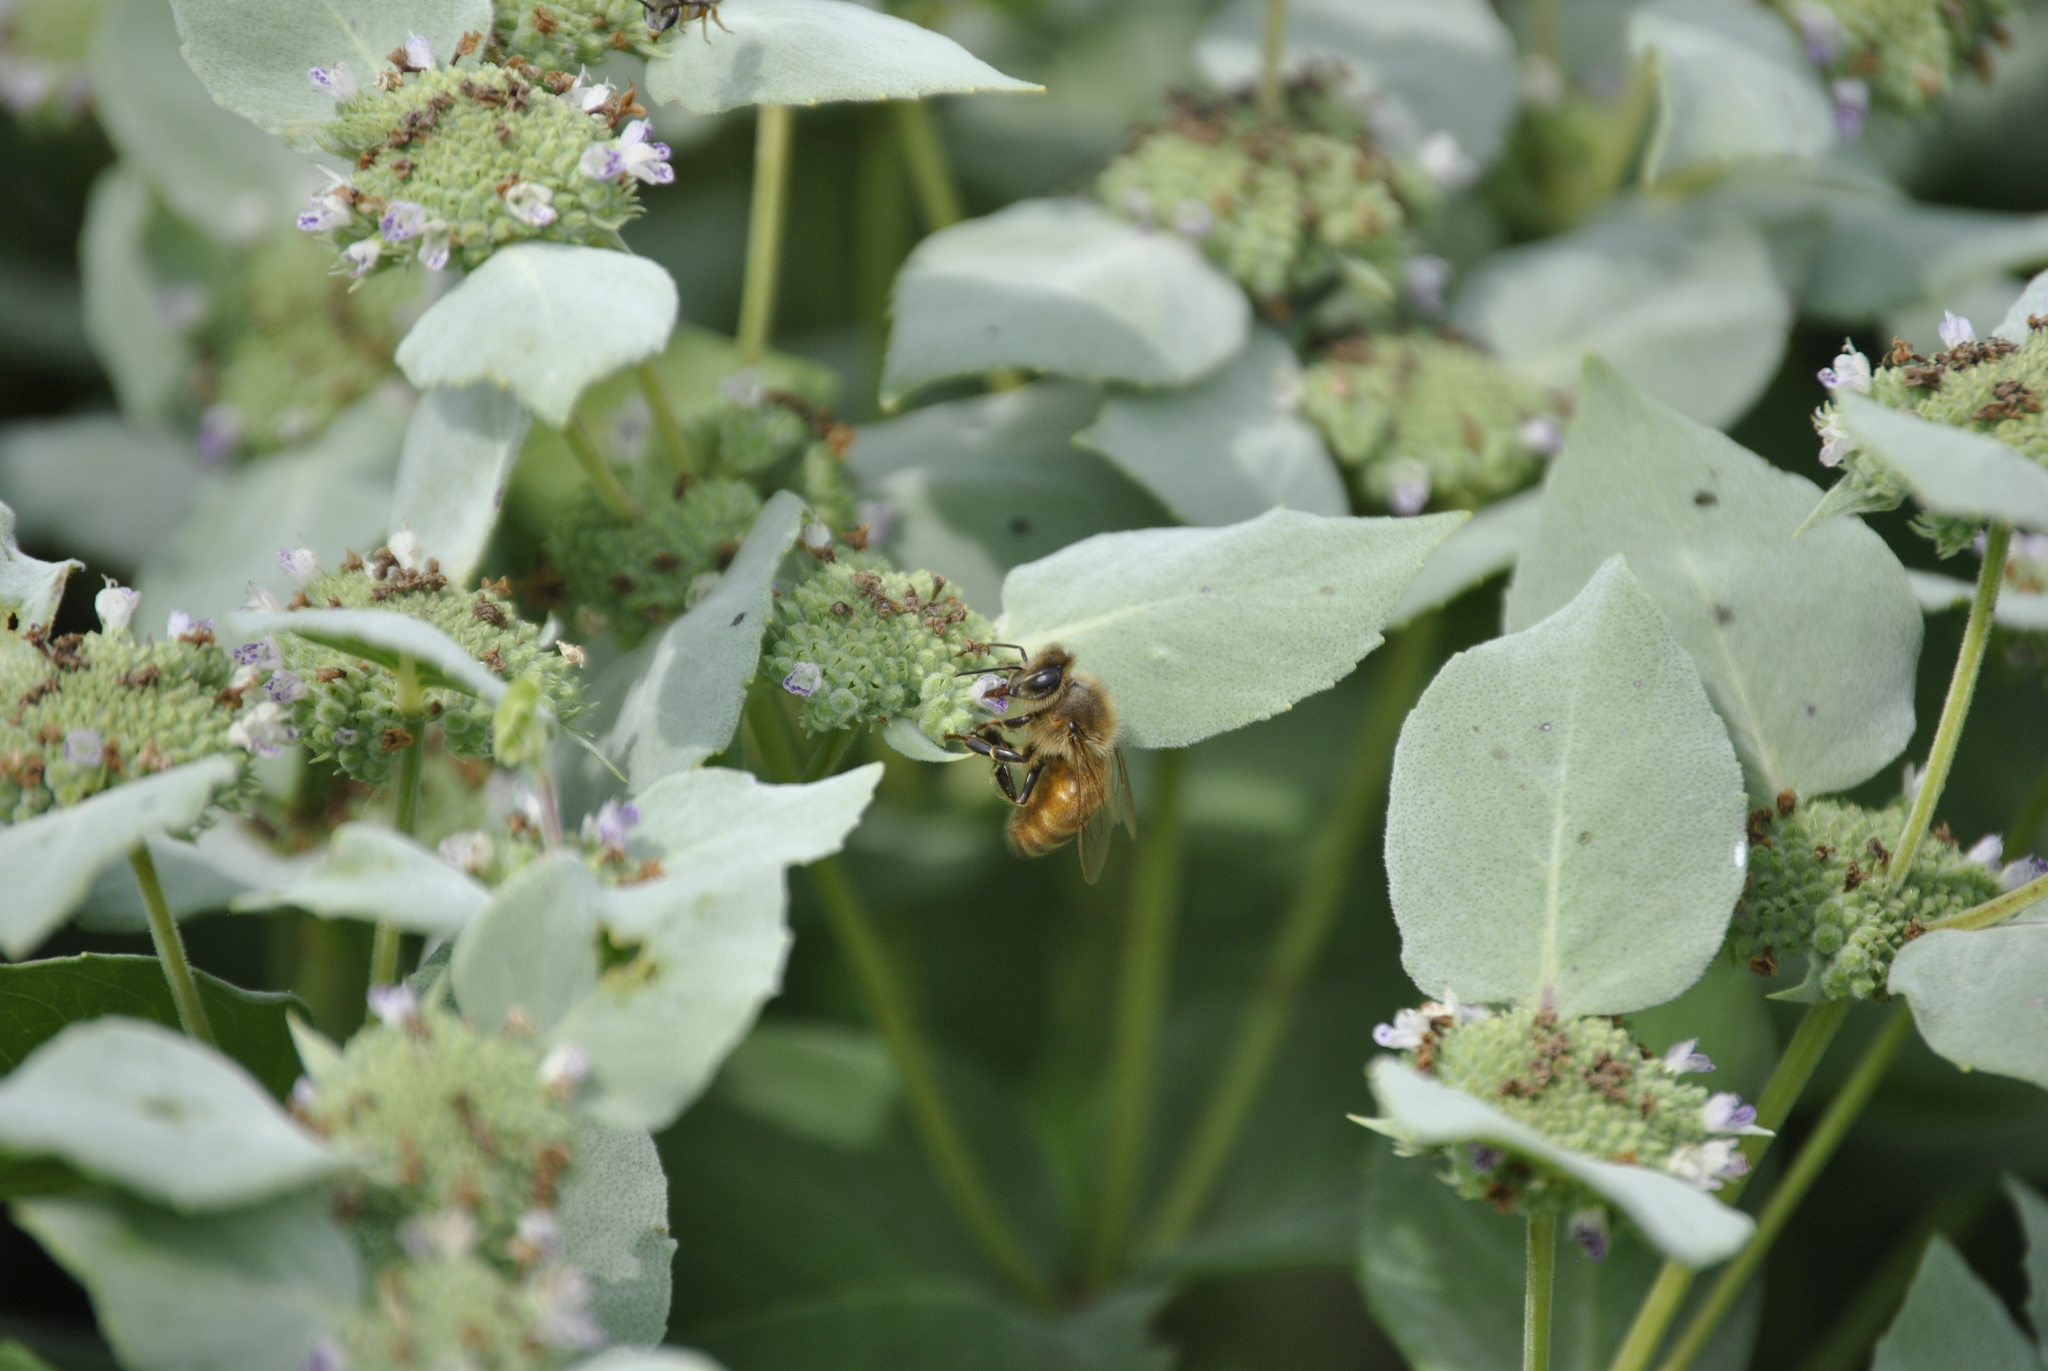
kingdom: Animalia
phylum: Arthropoda
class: Insecta
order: Hymenoptera
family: Apidae
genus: Apis
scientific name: Apis mellifera
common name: Honey bee
